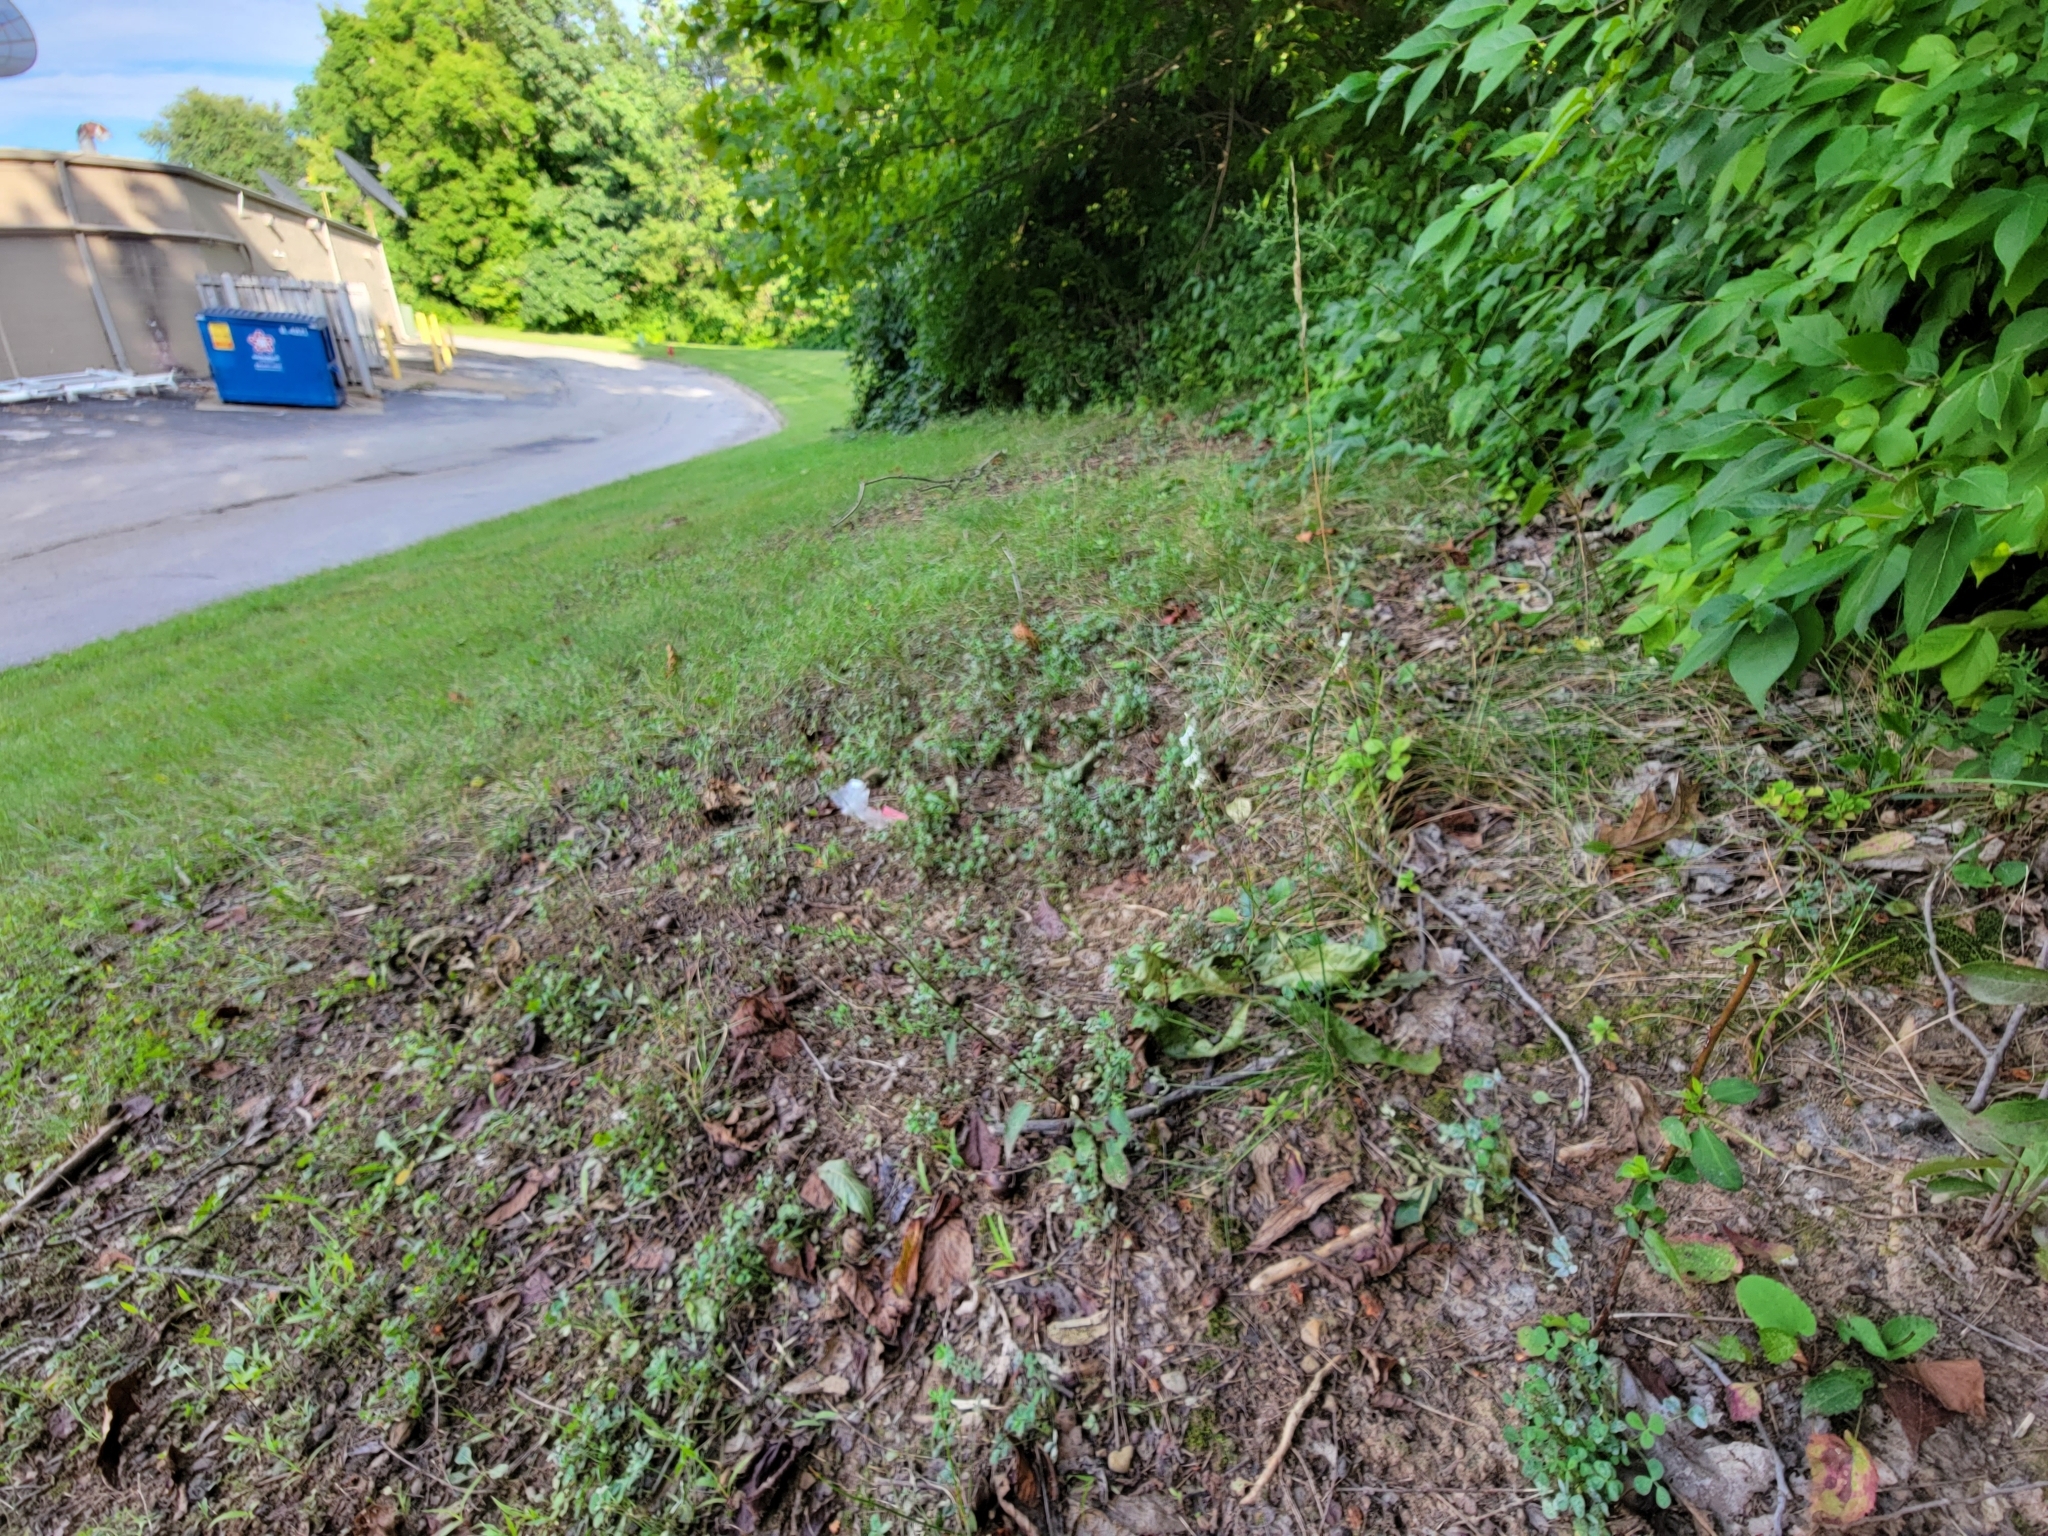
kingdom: Plantae
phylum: Tracheophyta
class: Liliopsida
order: Asparagales
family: Orchidaceae
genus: Spiranthes
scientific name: Spiranthes lacera
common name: Northern slender ladies'-tresses
